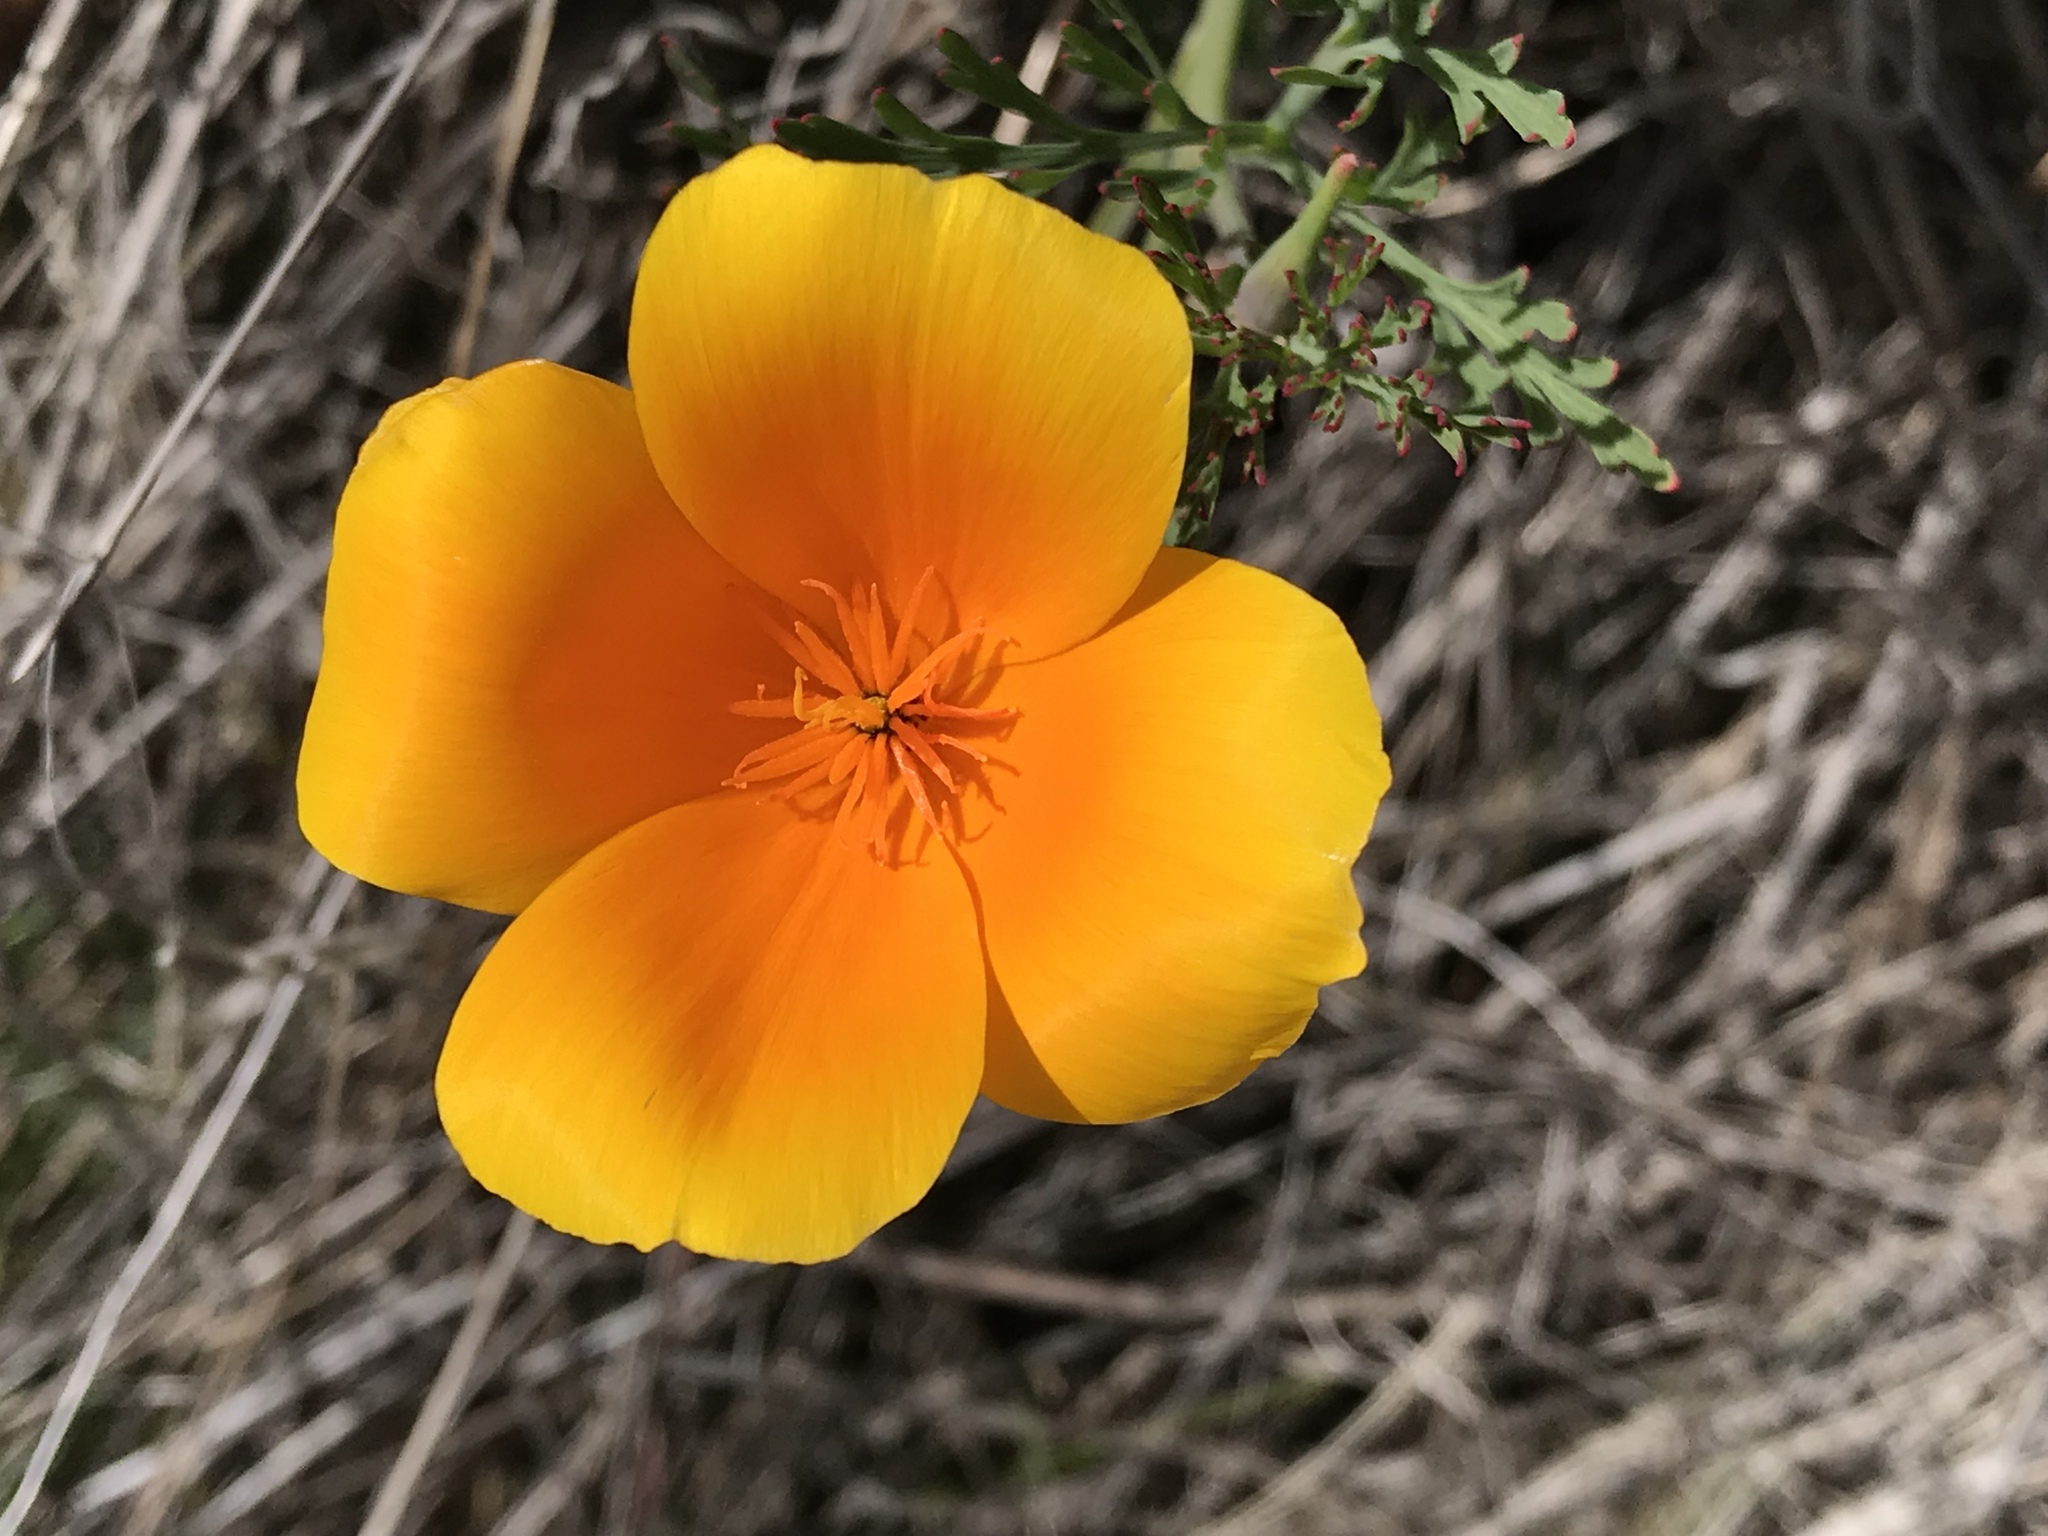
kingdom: Plantae
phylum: Tracheophyta
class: Magnoliopsida
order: Ranunculales
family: Papaveraceae
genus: Eschscholzia
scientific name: Eschscholzia californica
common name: California poppy
